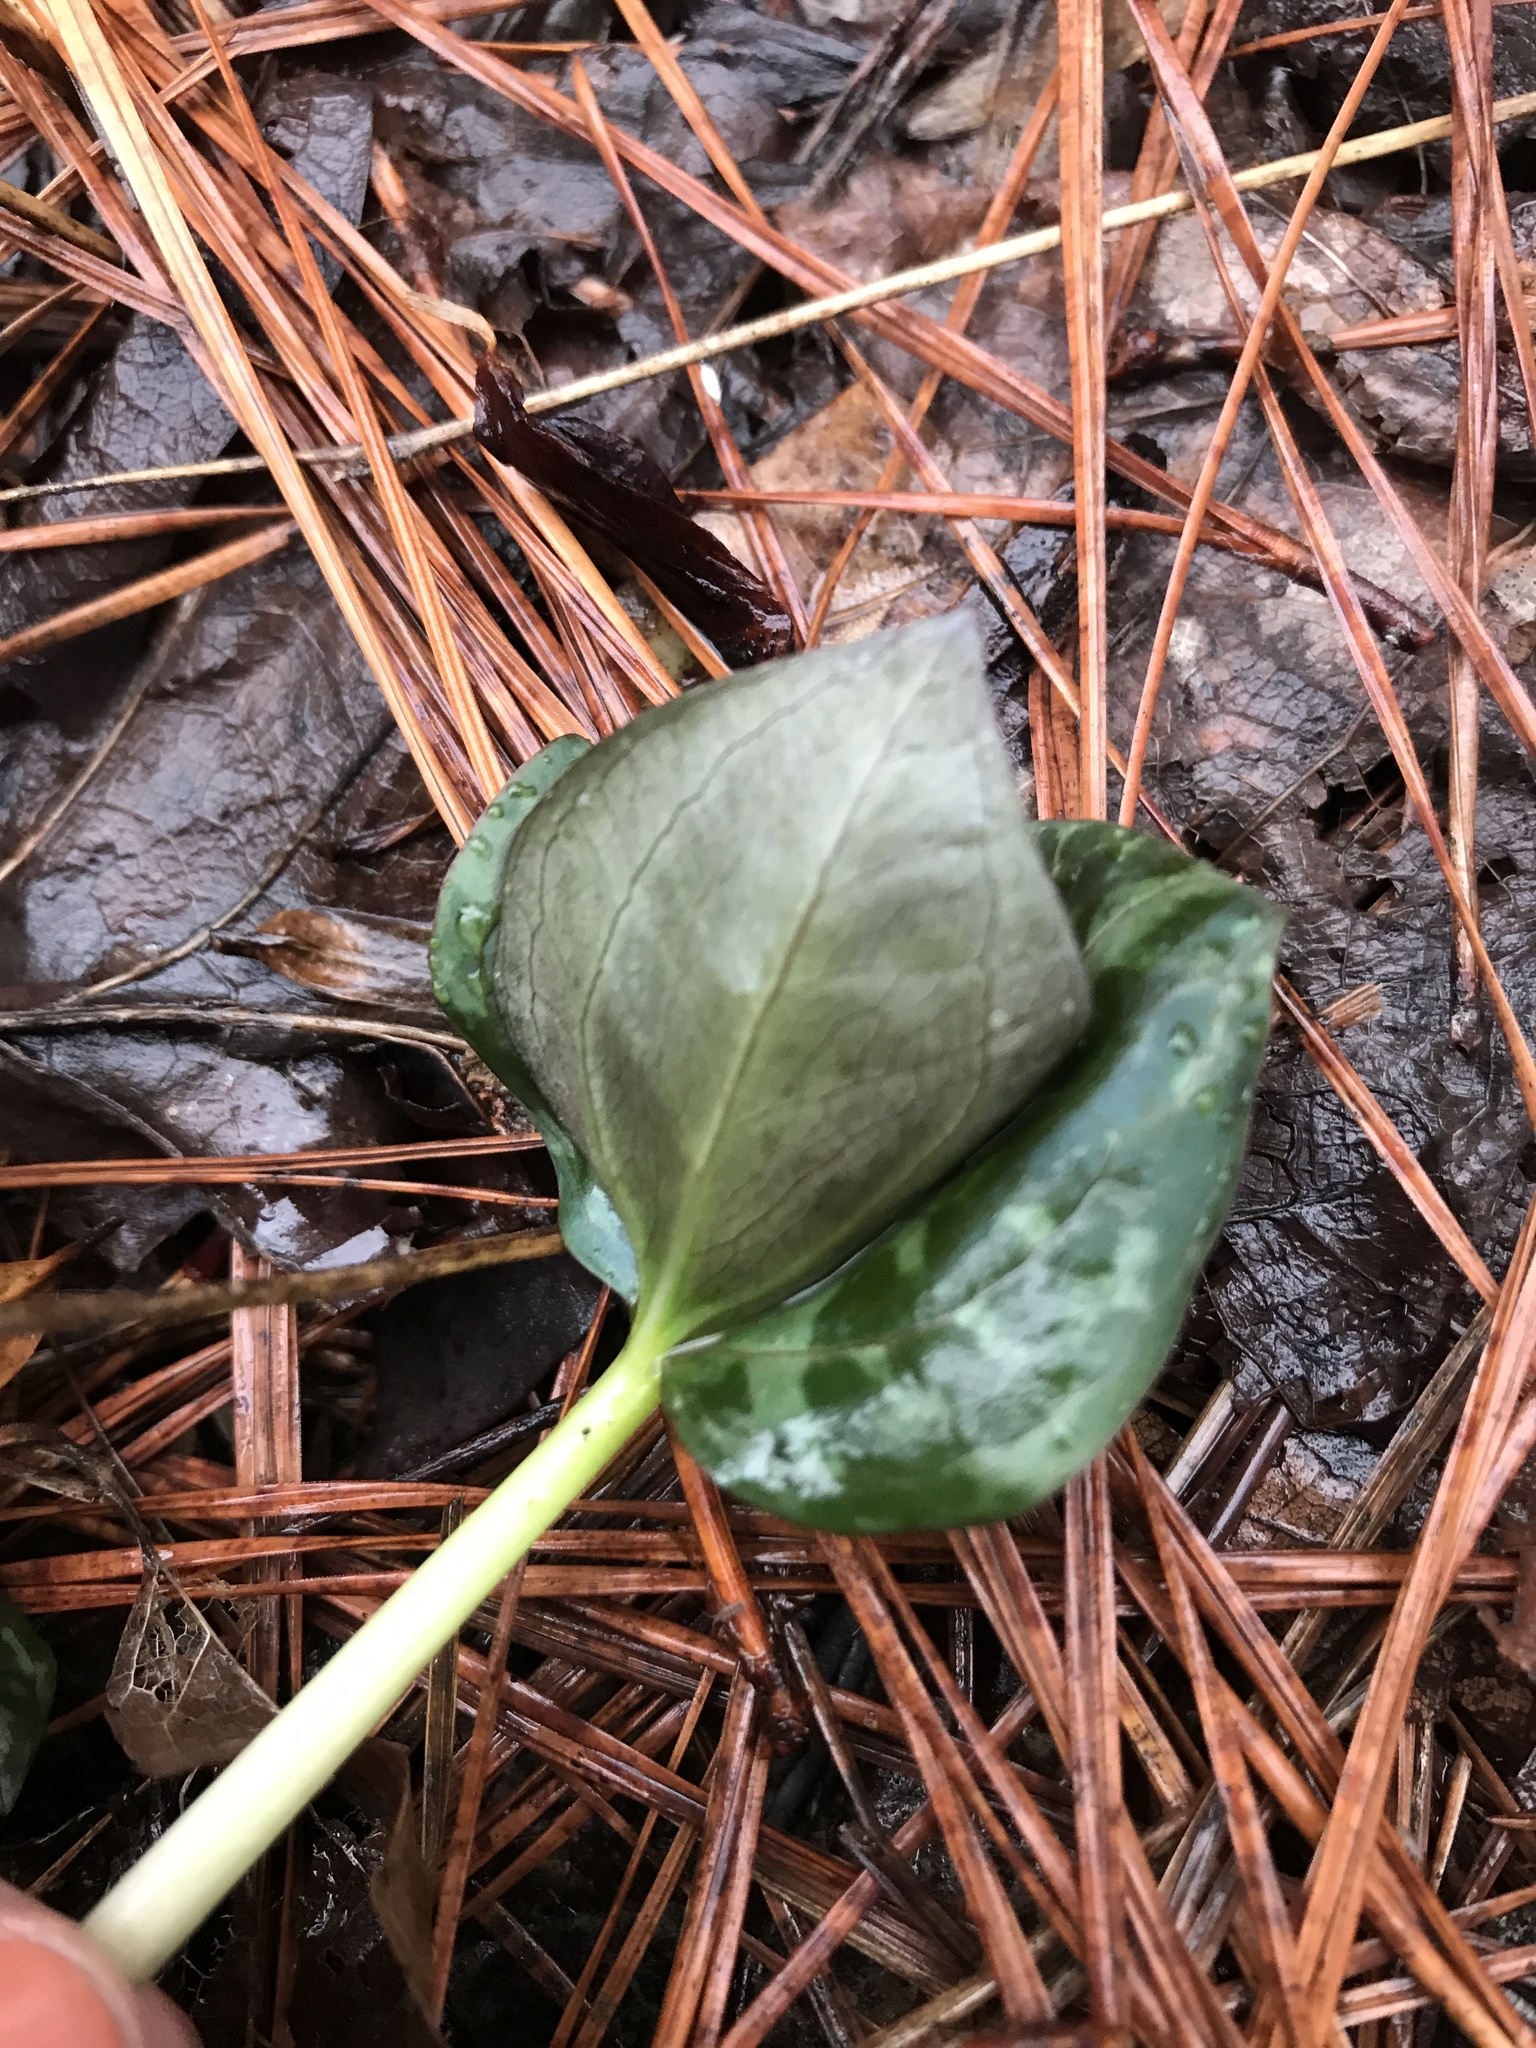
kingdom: Plantae
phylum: Tracheophyta
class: Liliopsida
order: Liliales
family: Melanthiaceae
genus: Trillium
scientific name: Trillium cuneatum
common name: Cuneate trillium
